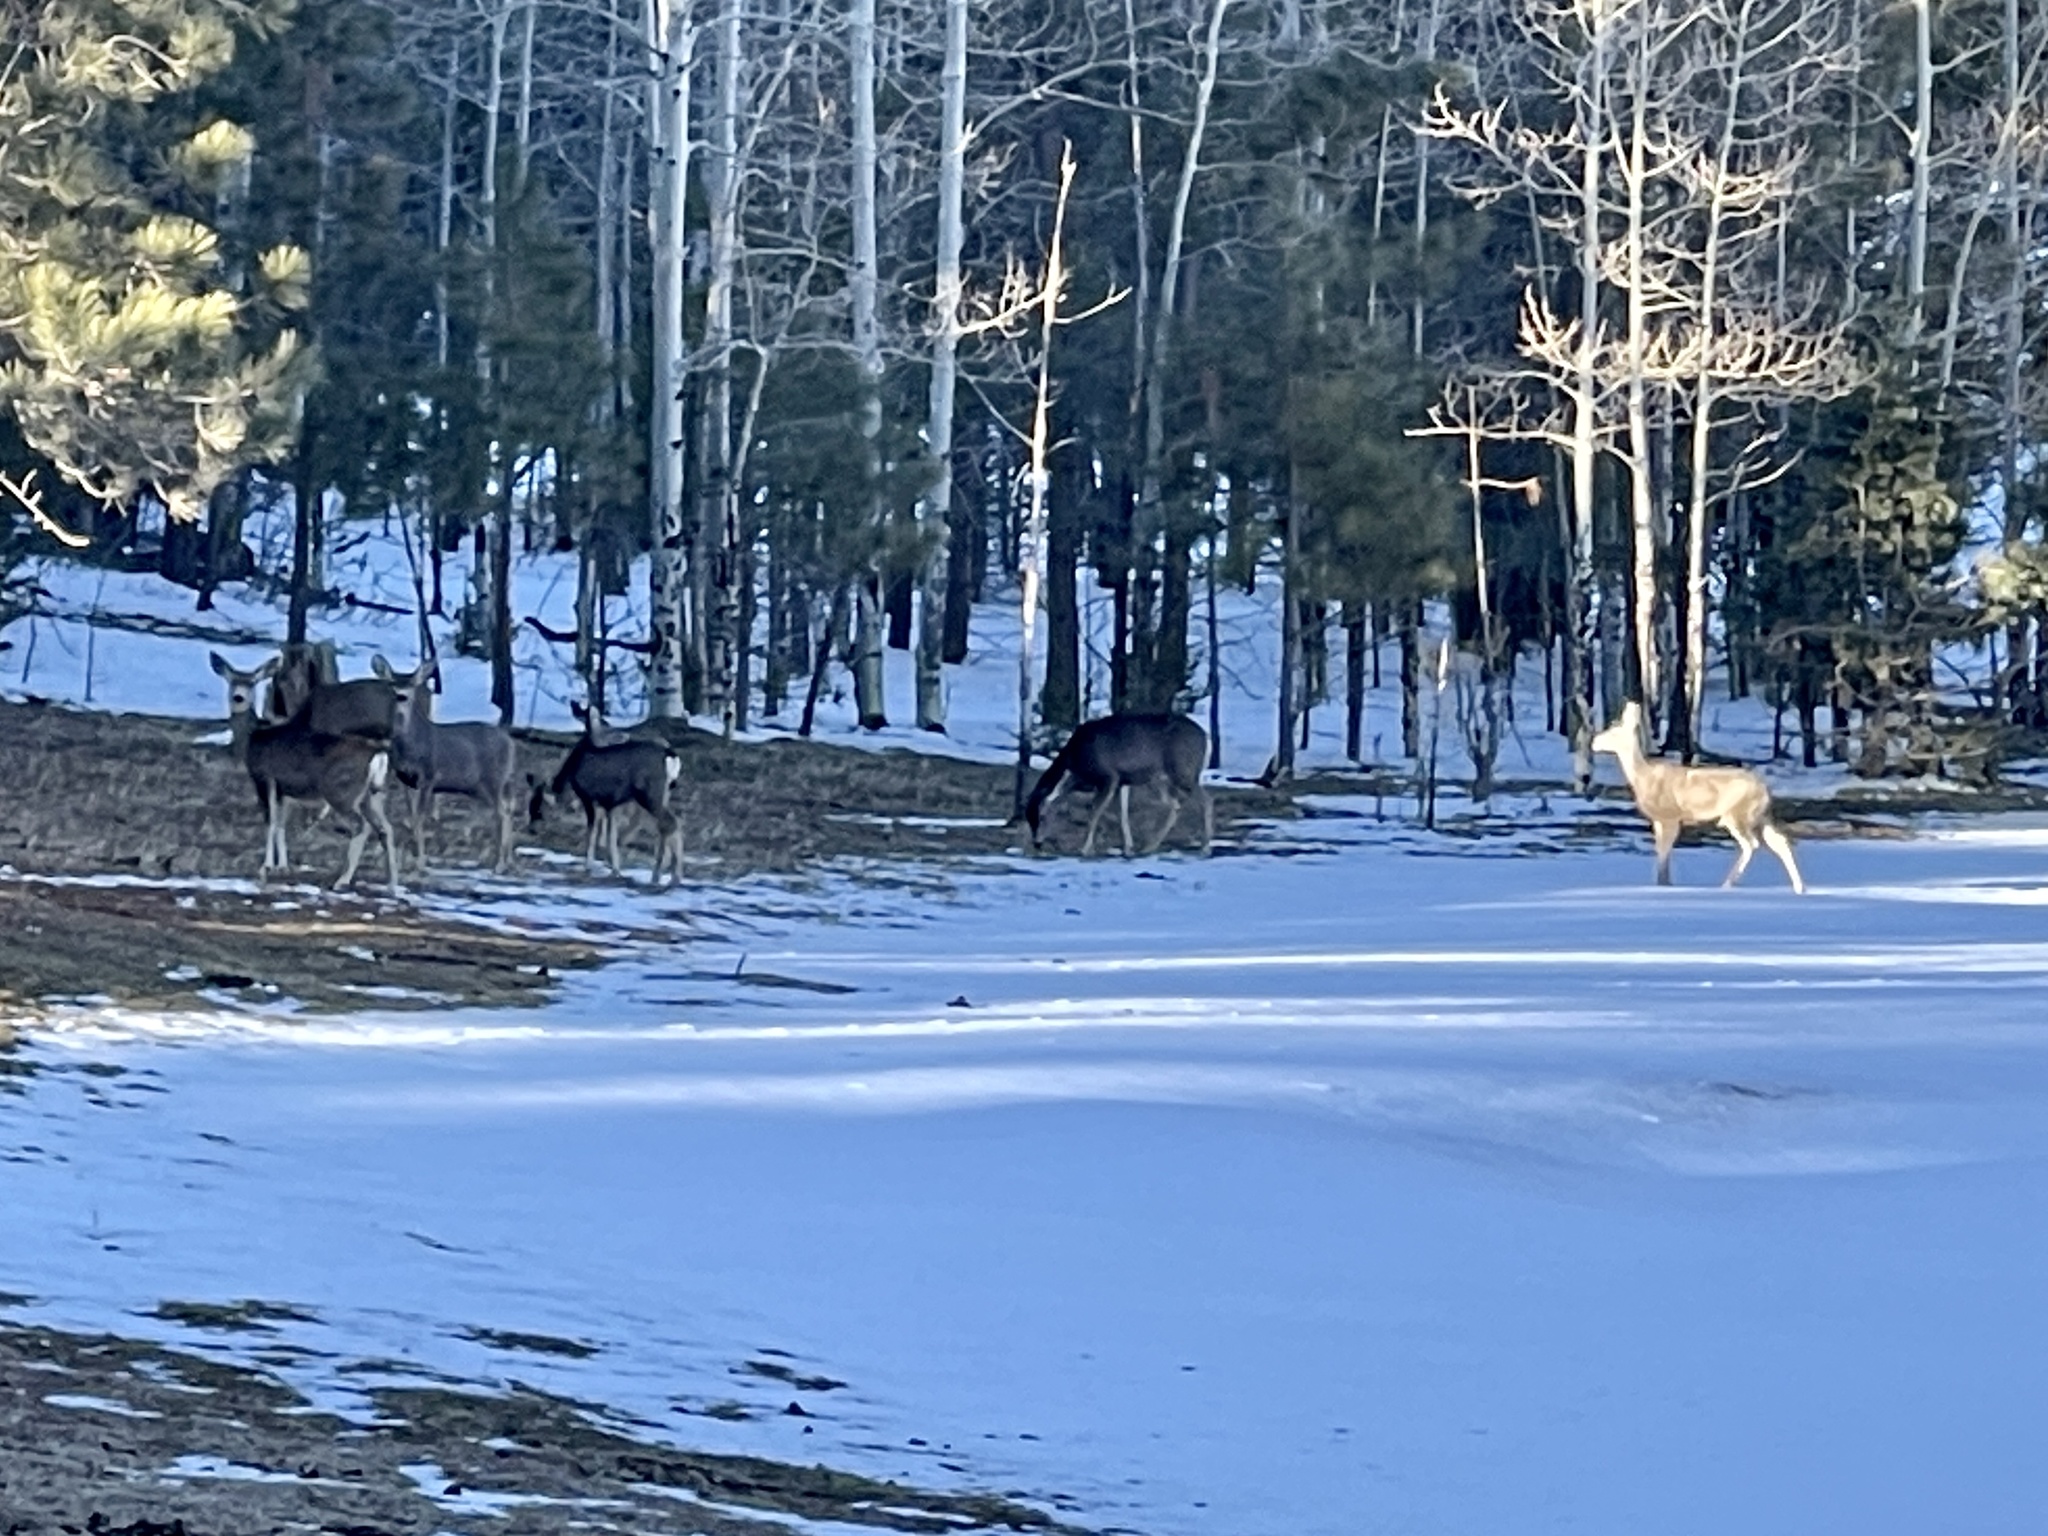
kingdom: Animalia
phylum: Chordata
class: Mammalia
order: Artiodactyla
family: Cervidae
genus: Odocoileus
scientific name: Odocoileus hemionus
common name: Mule deer
